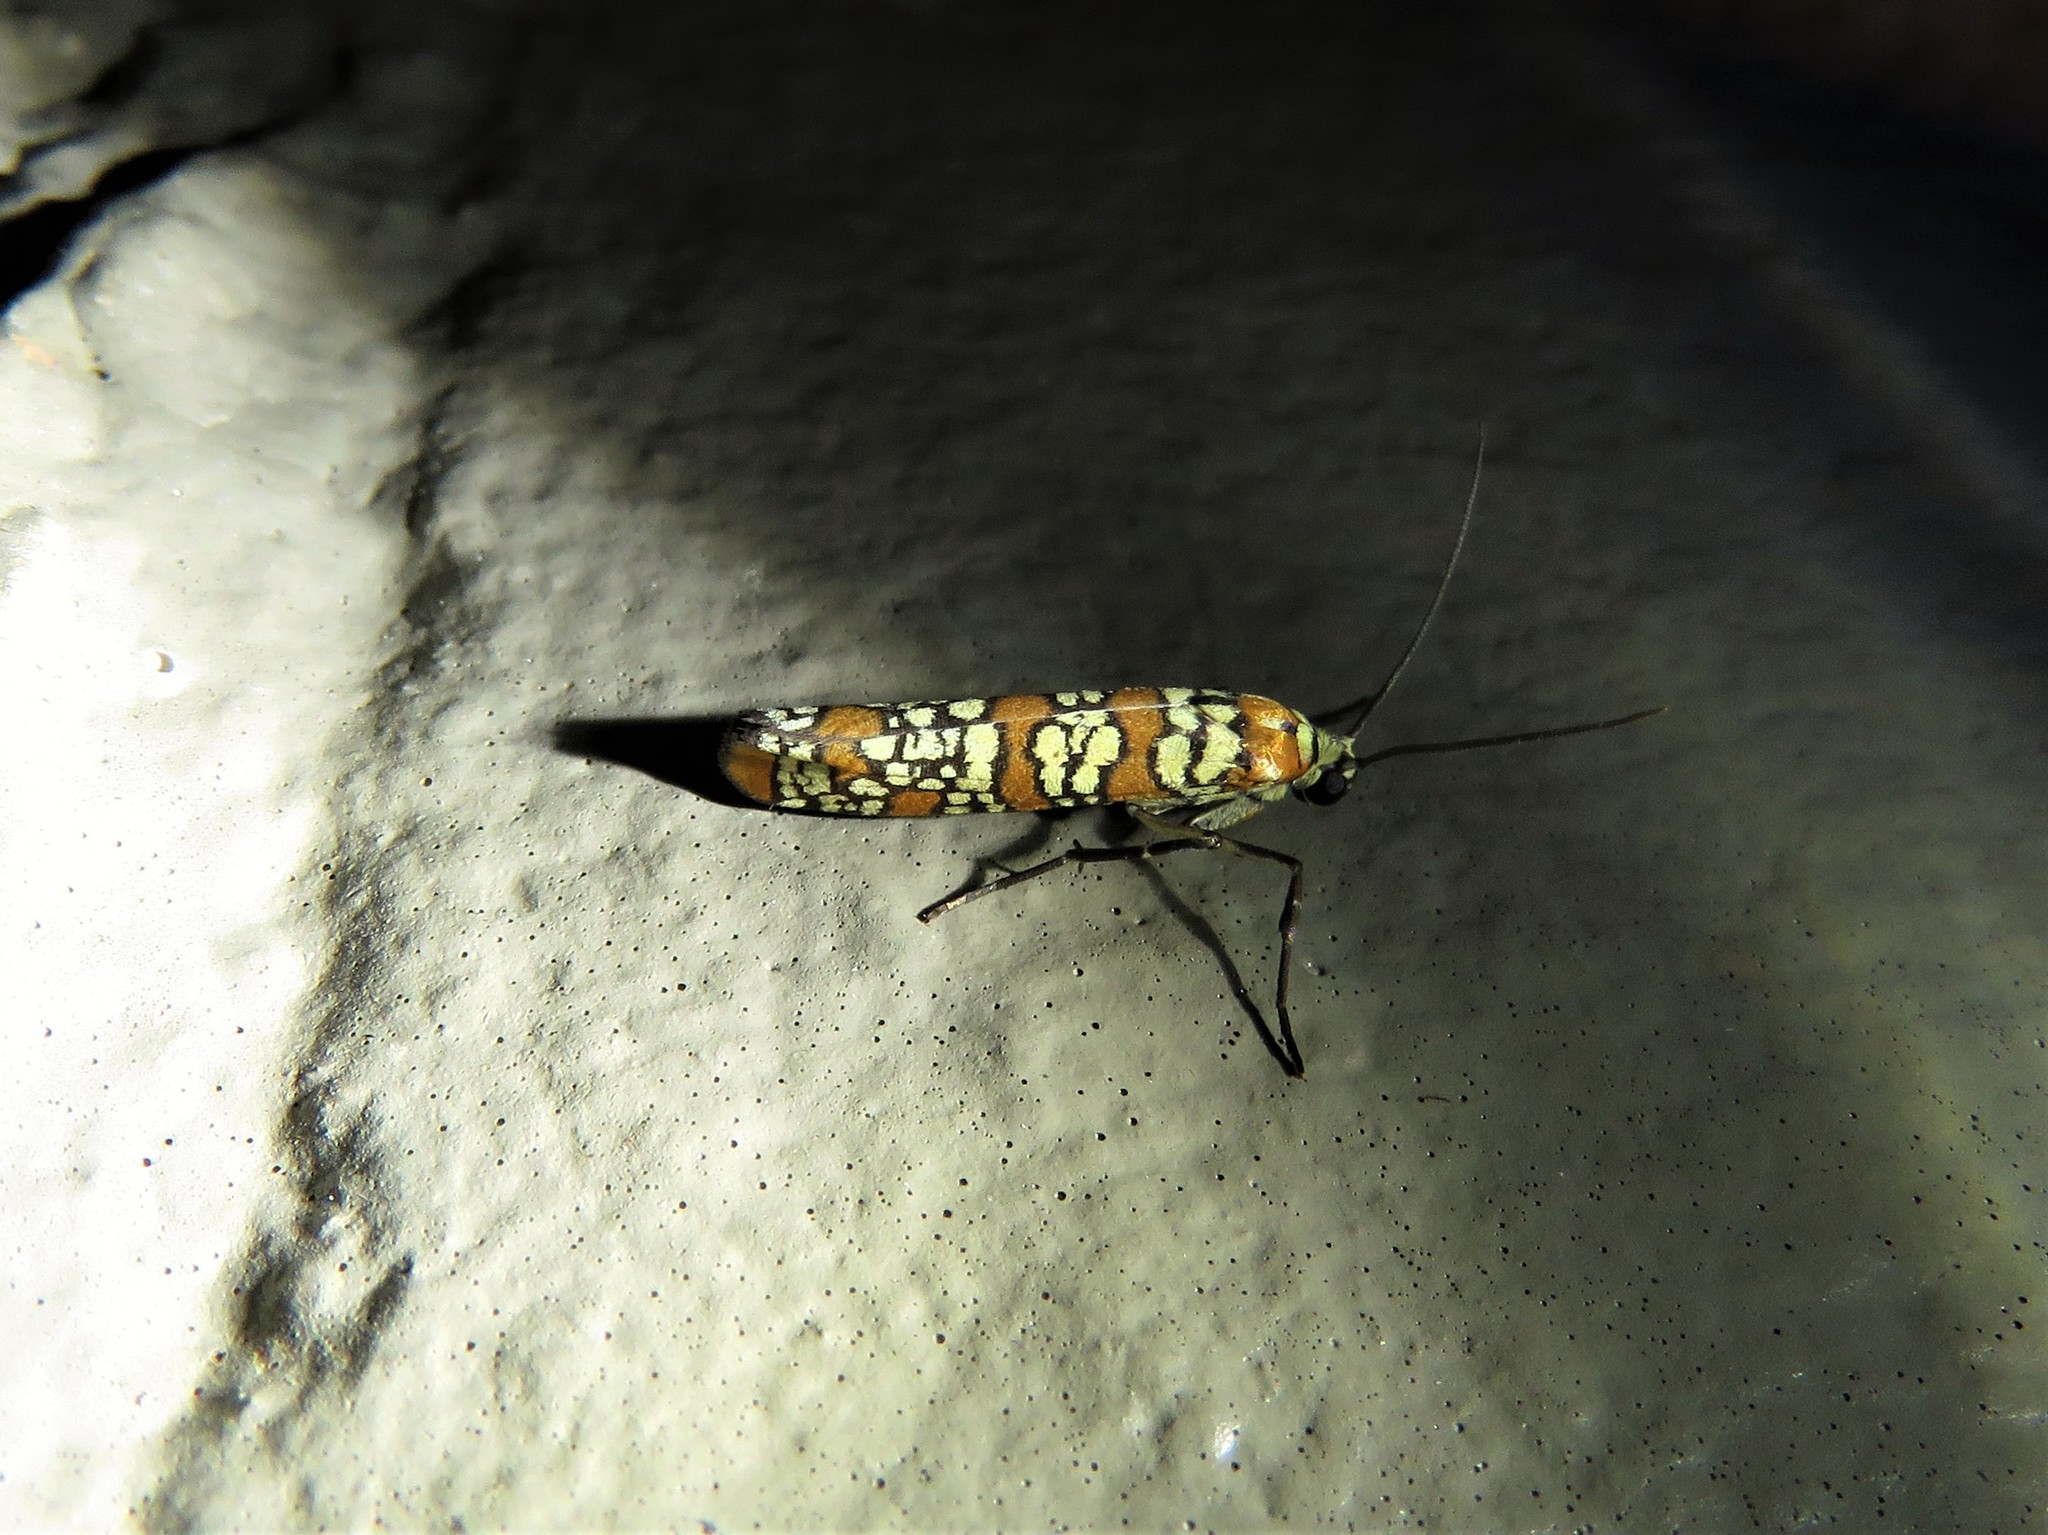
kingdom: Animalia
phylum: Arthropoda
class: Insecta
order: Lepidoptera
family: Attevidae
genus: Atteva
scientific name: Atteva punctella
